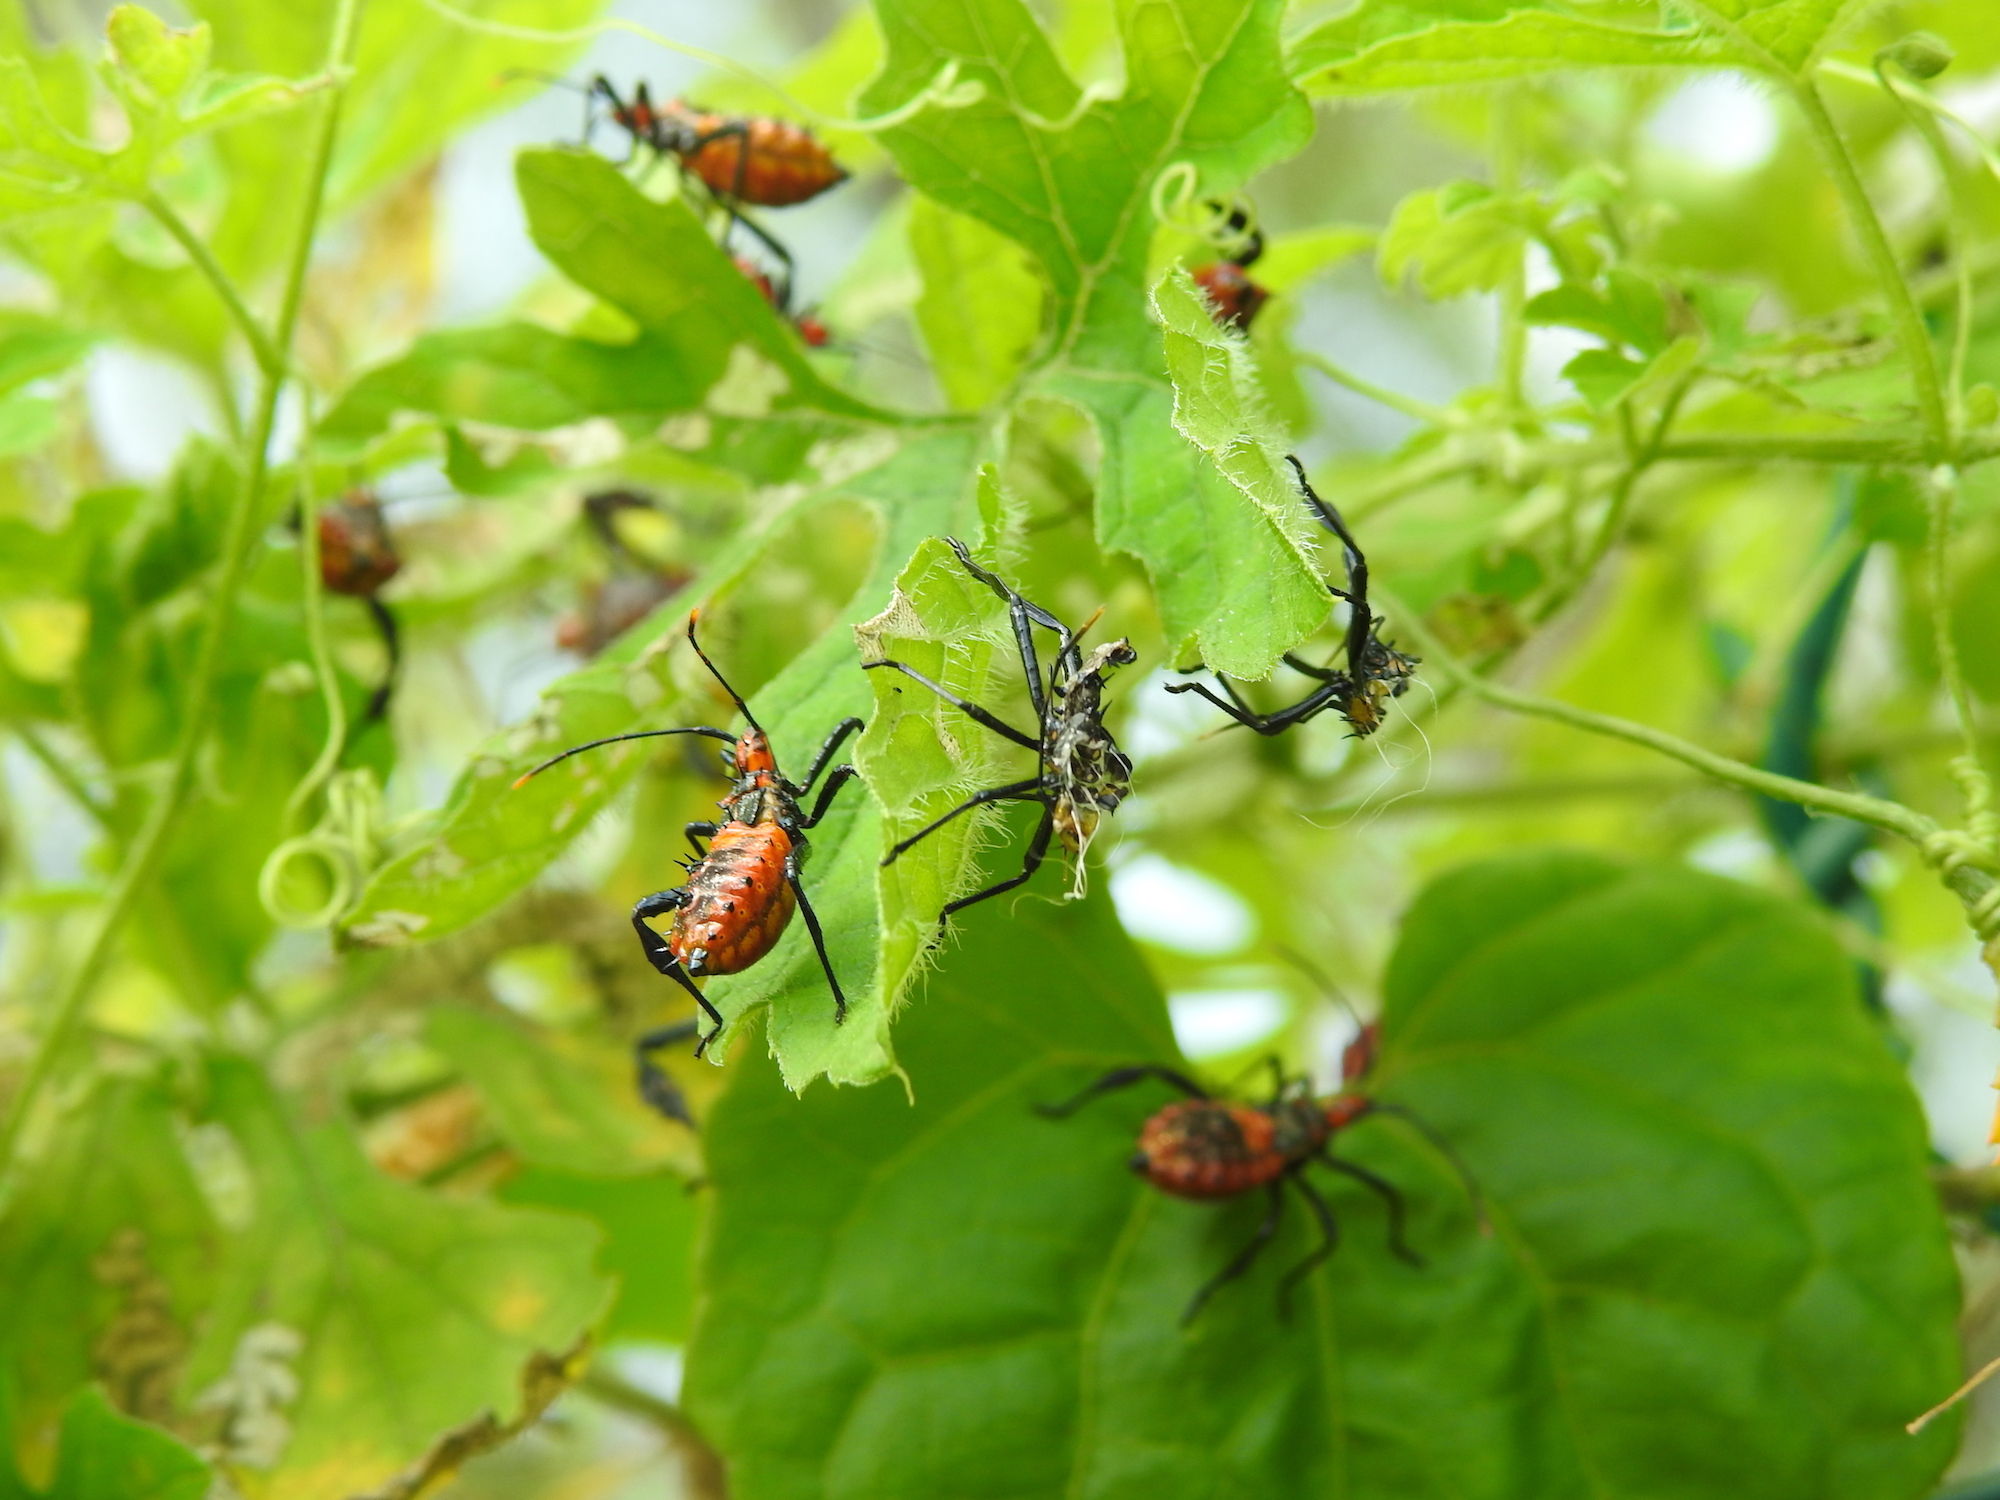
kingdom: Animalia
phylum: Arthropoda
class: Insecta
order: Hemiptera
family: Coreidae
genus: Leptoglossus
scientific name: Leptoglossus gonagra
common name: Citron bug
